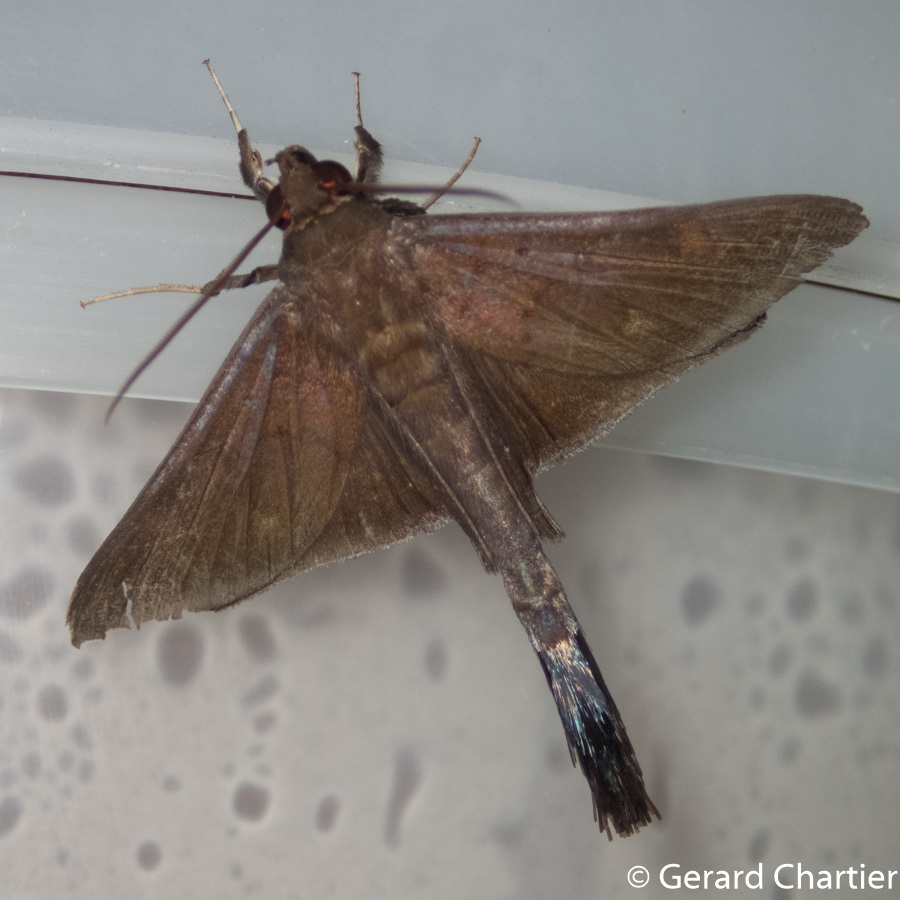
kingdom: Animalia
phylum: Arthropoda
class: Insecta
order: Lepidoptera
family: Erebidae
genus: Platyja
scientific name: Platyja umbrina
